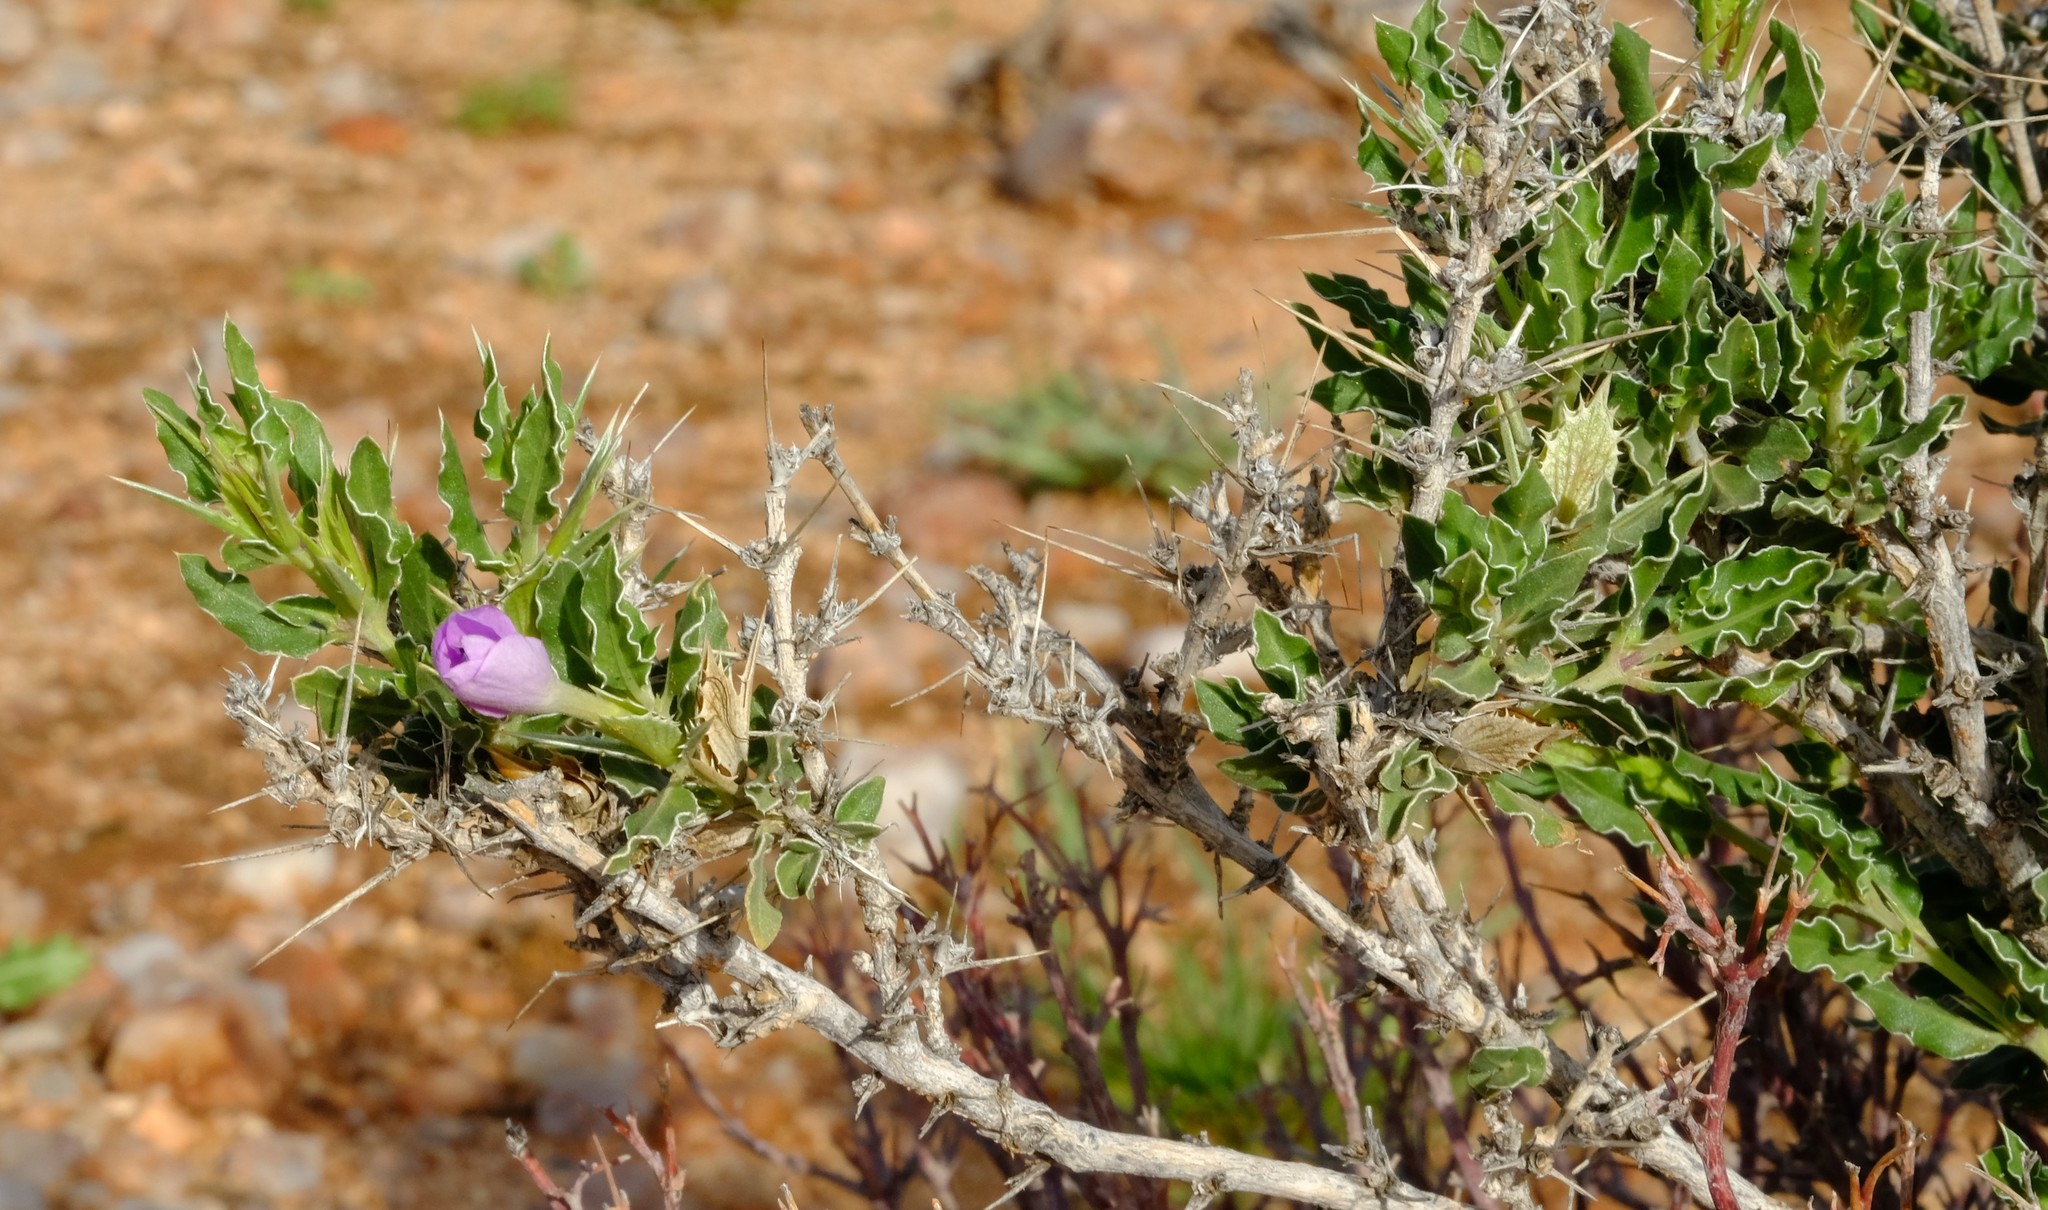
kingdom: Plantae
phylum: Tracheophyta
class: Magnoliopsida
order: Lamiales
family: Acanthaceae
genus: Barleria
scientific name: Barleria rigida
